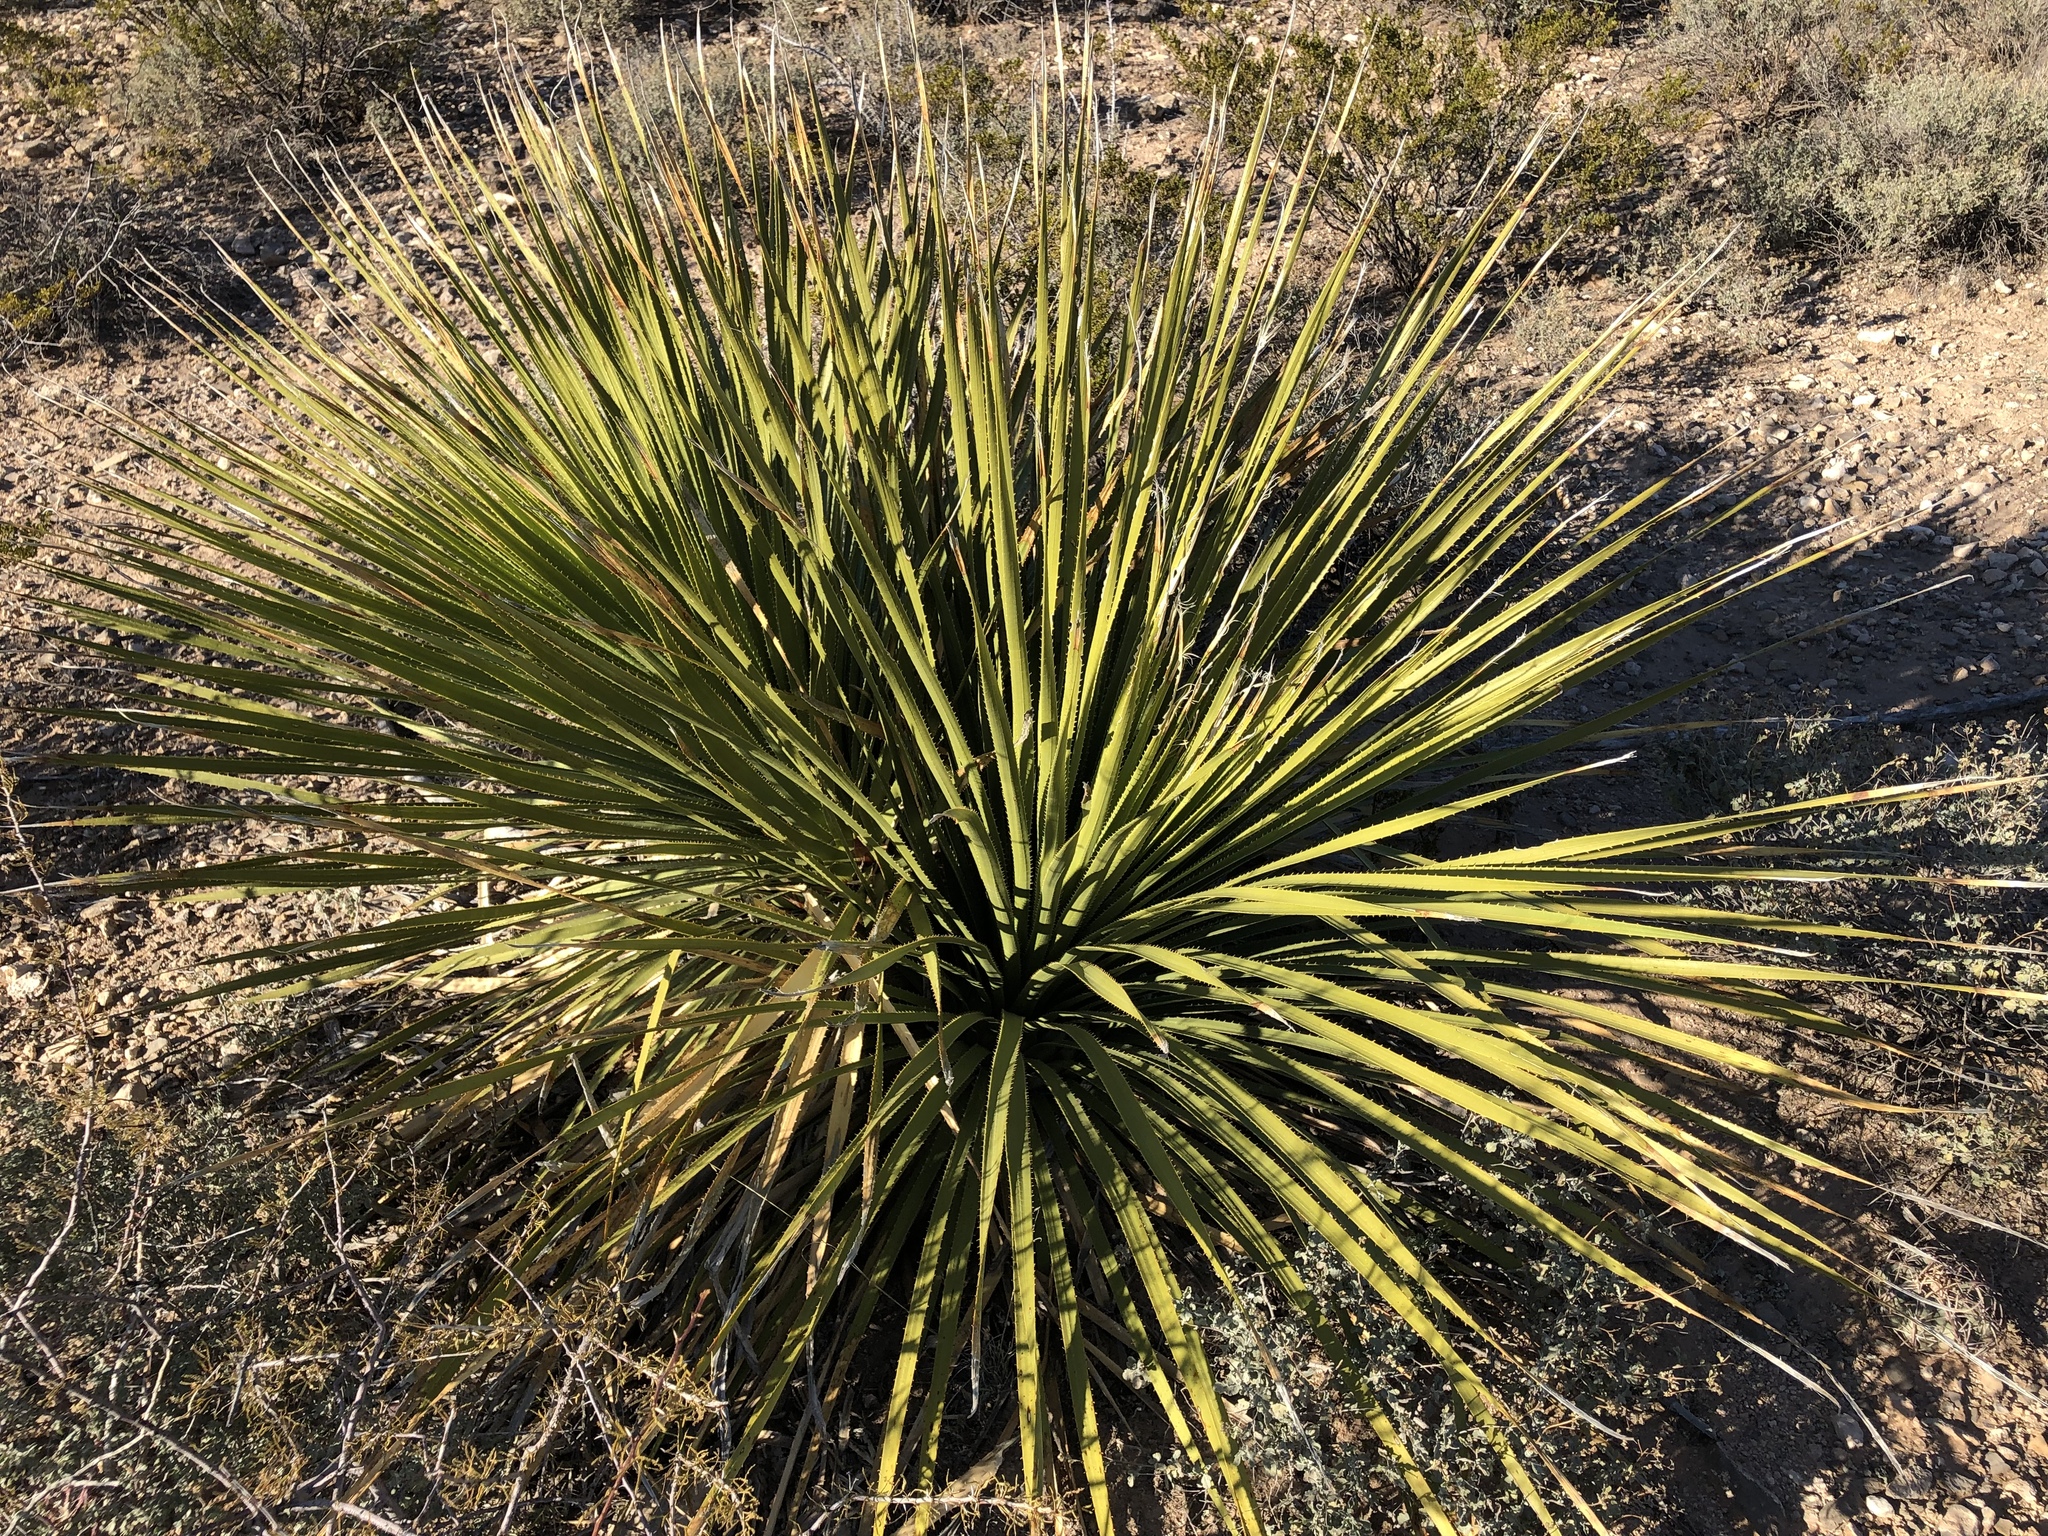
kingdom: Plantae
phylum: Tracheophyta
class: Liliopsida
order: Asparagales
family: Asparagaceae
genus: Dasylirion
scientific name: Dasylirion wheeleri
